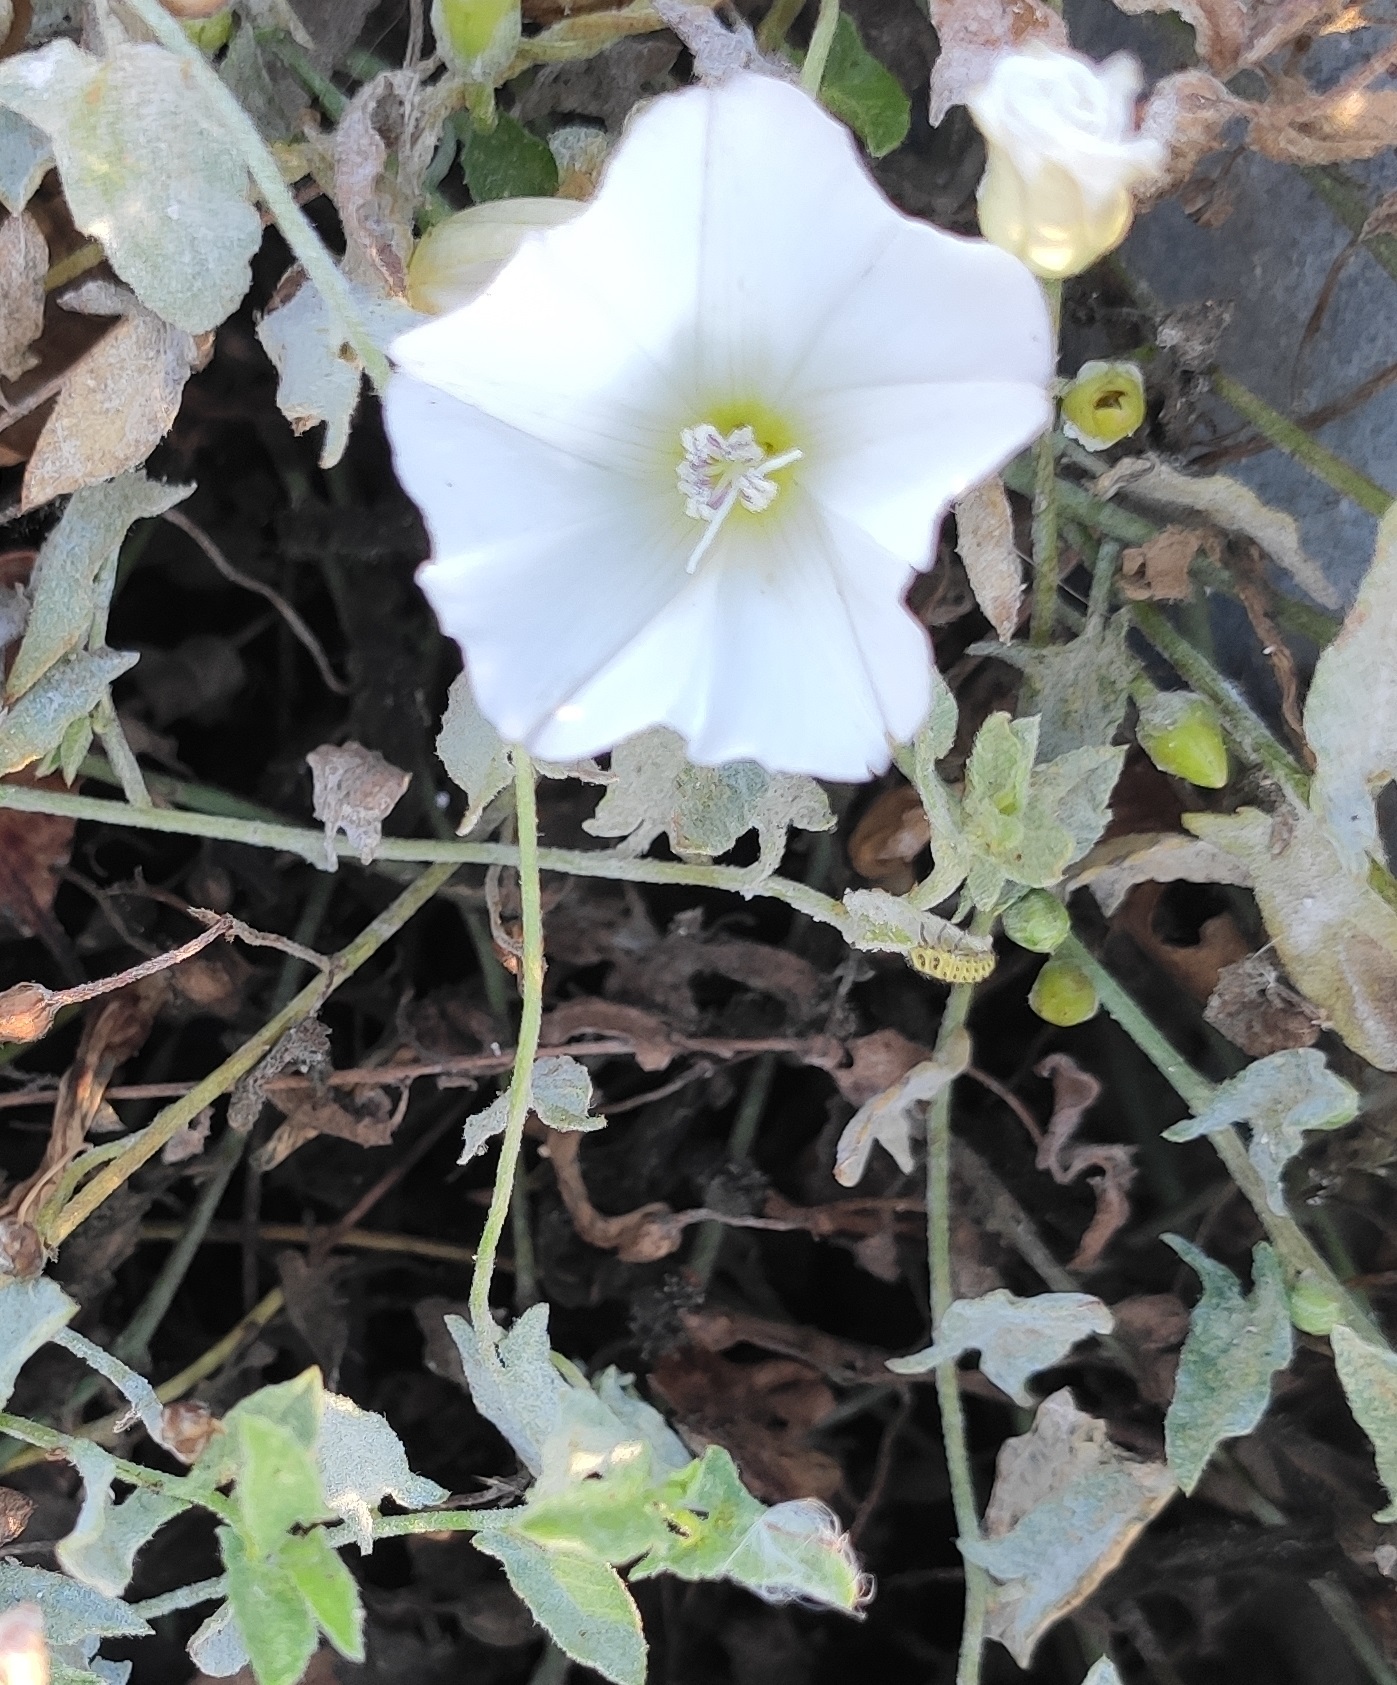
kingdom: Plantae
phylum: Tracheophyta
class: Magnoliopsida
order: Solanales
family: Convolvulaceae
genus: Convolvulus
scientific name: Convolvulus arvensis
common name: Field bindweed
